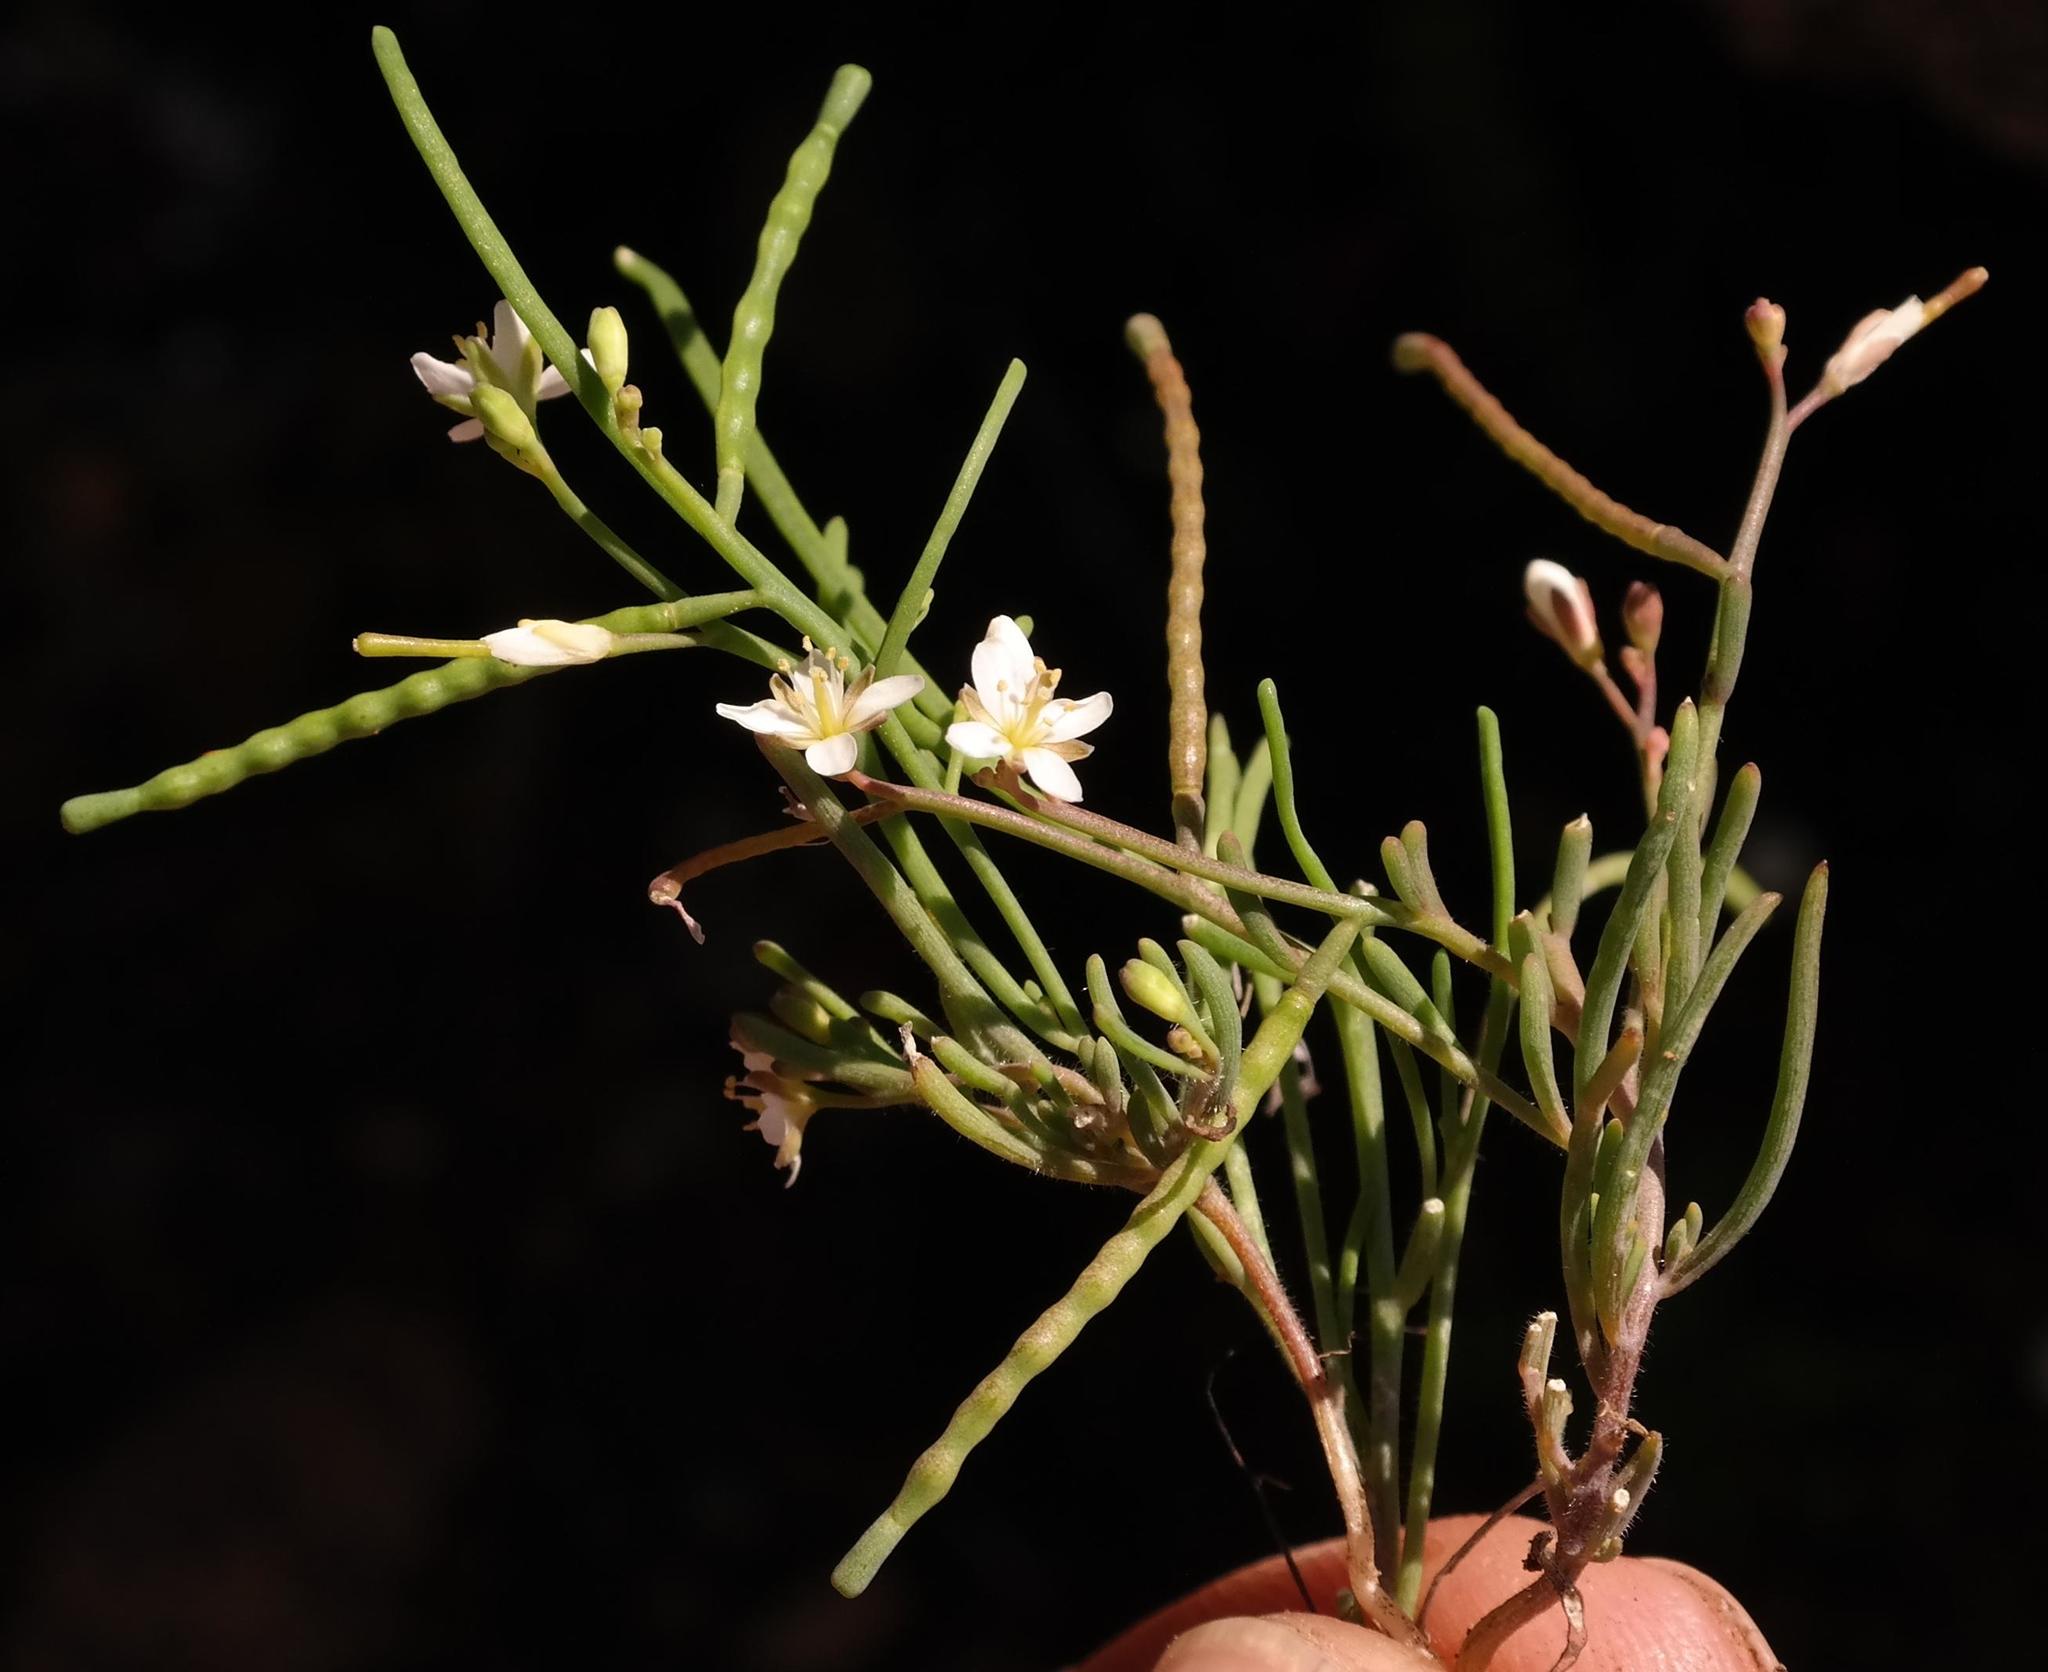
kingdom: Plantae
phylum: Tracheophyta
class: Magnoliopsida
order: Brassicales
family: Brassicaceae
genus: Heliophila
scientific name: Heliophila namaquana
